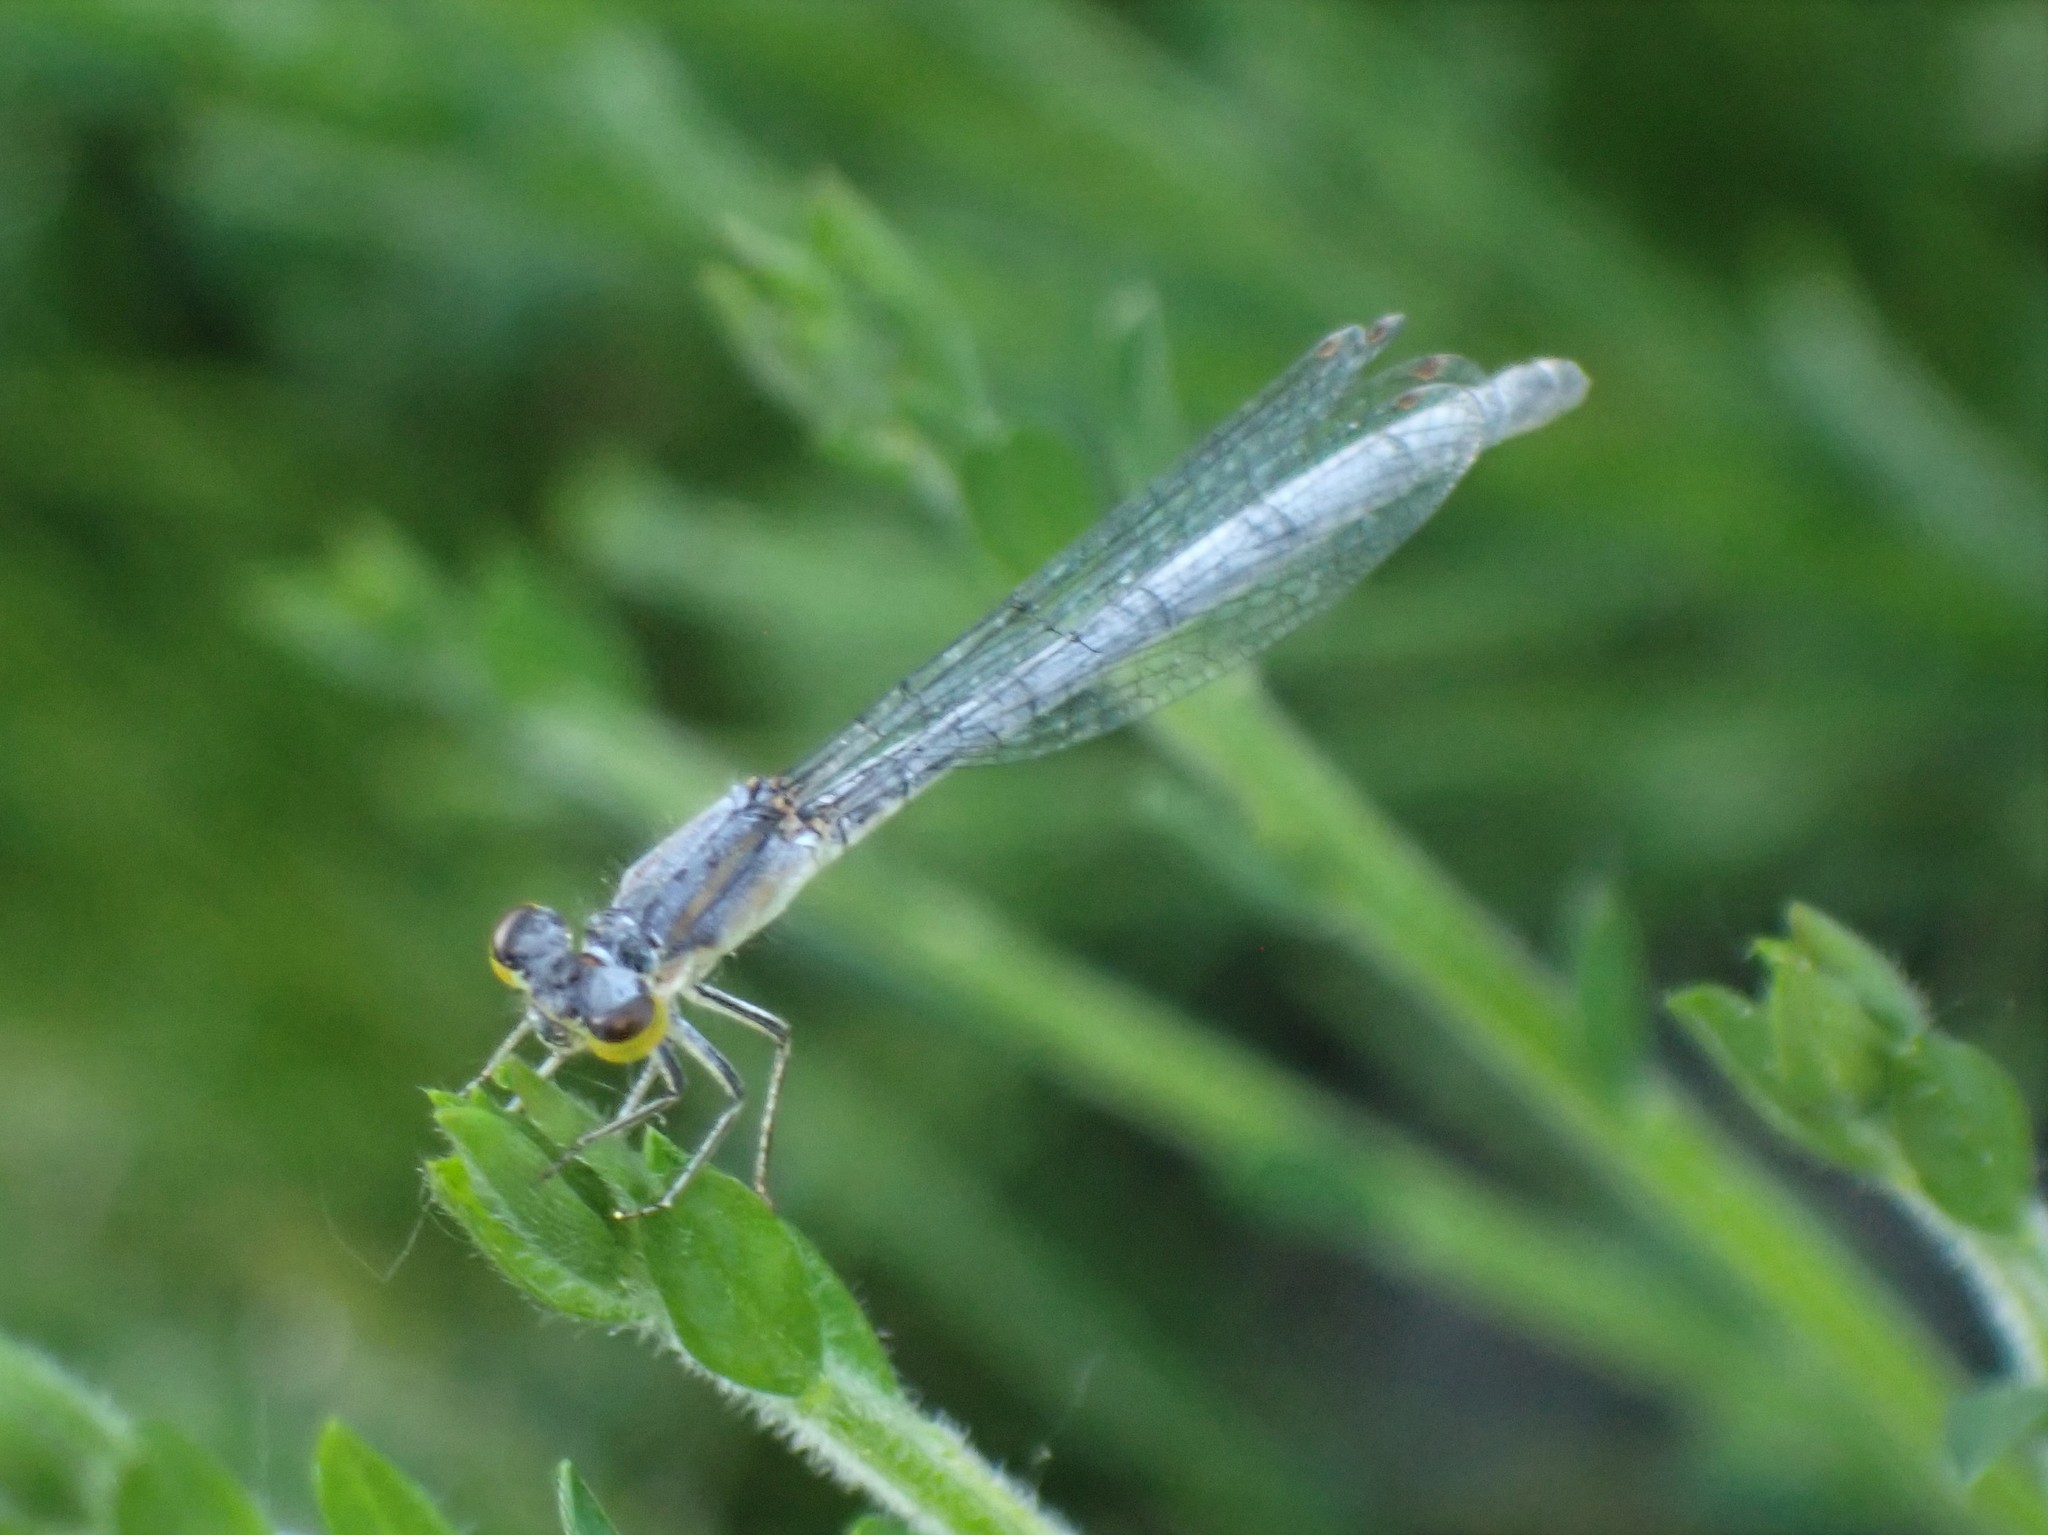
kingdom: Animalia
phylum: Arthropoda
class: Insecta
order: Odonata
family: Coenagrionidae
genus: Ischnura
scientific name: Ischnura perparva
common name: Western forktail
